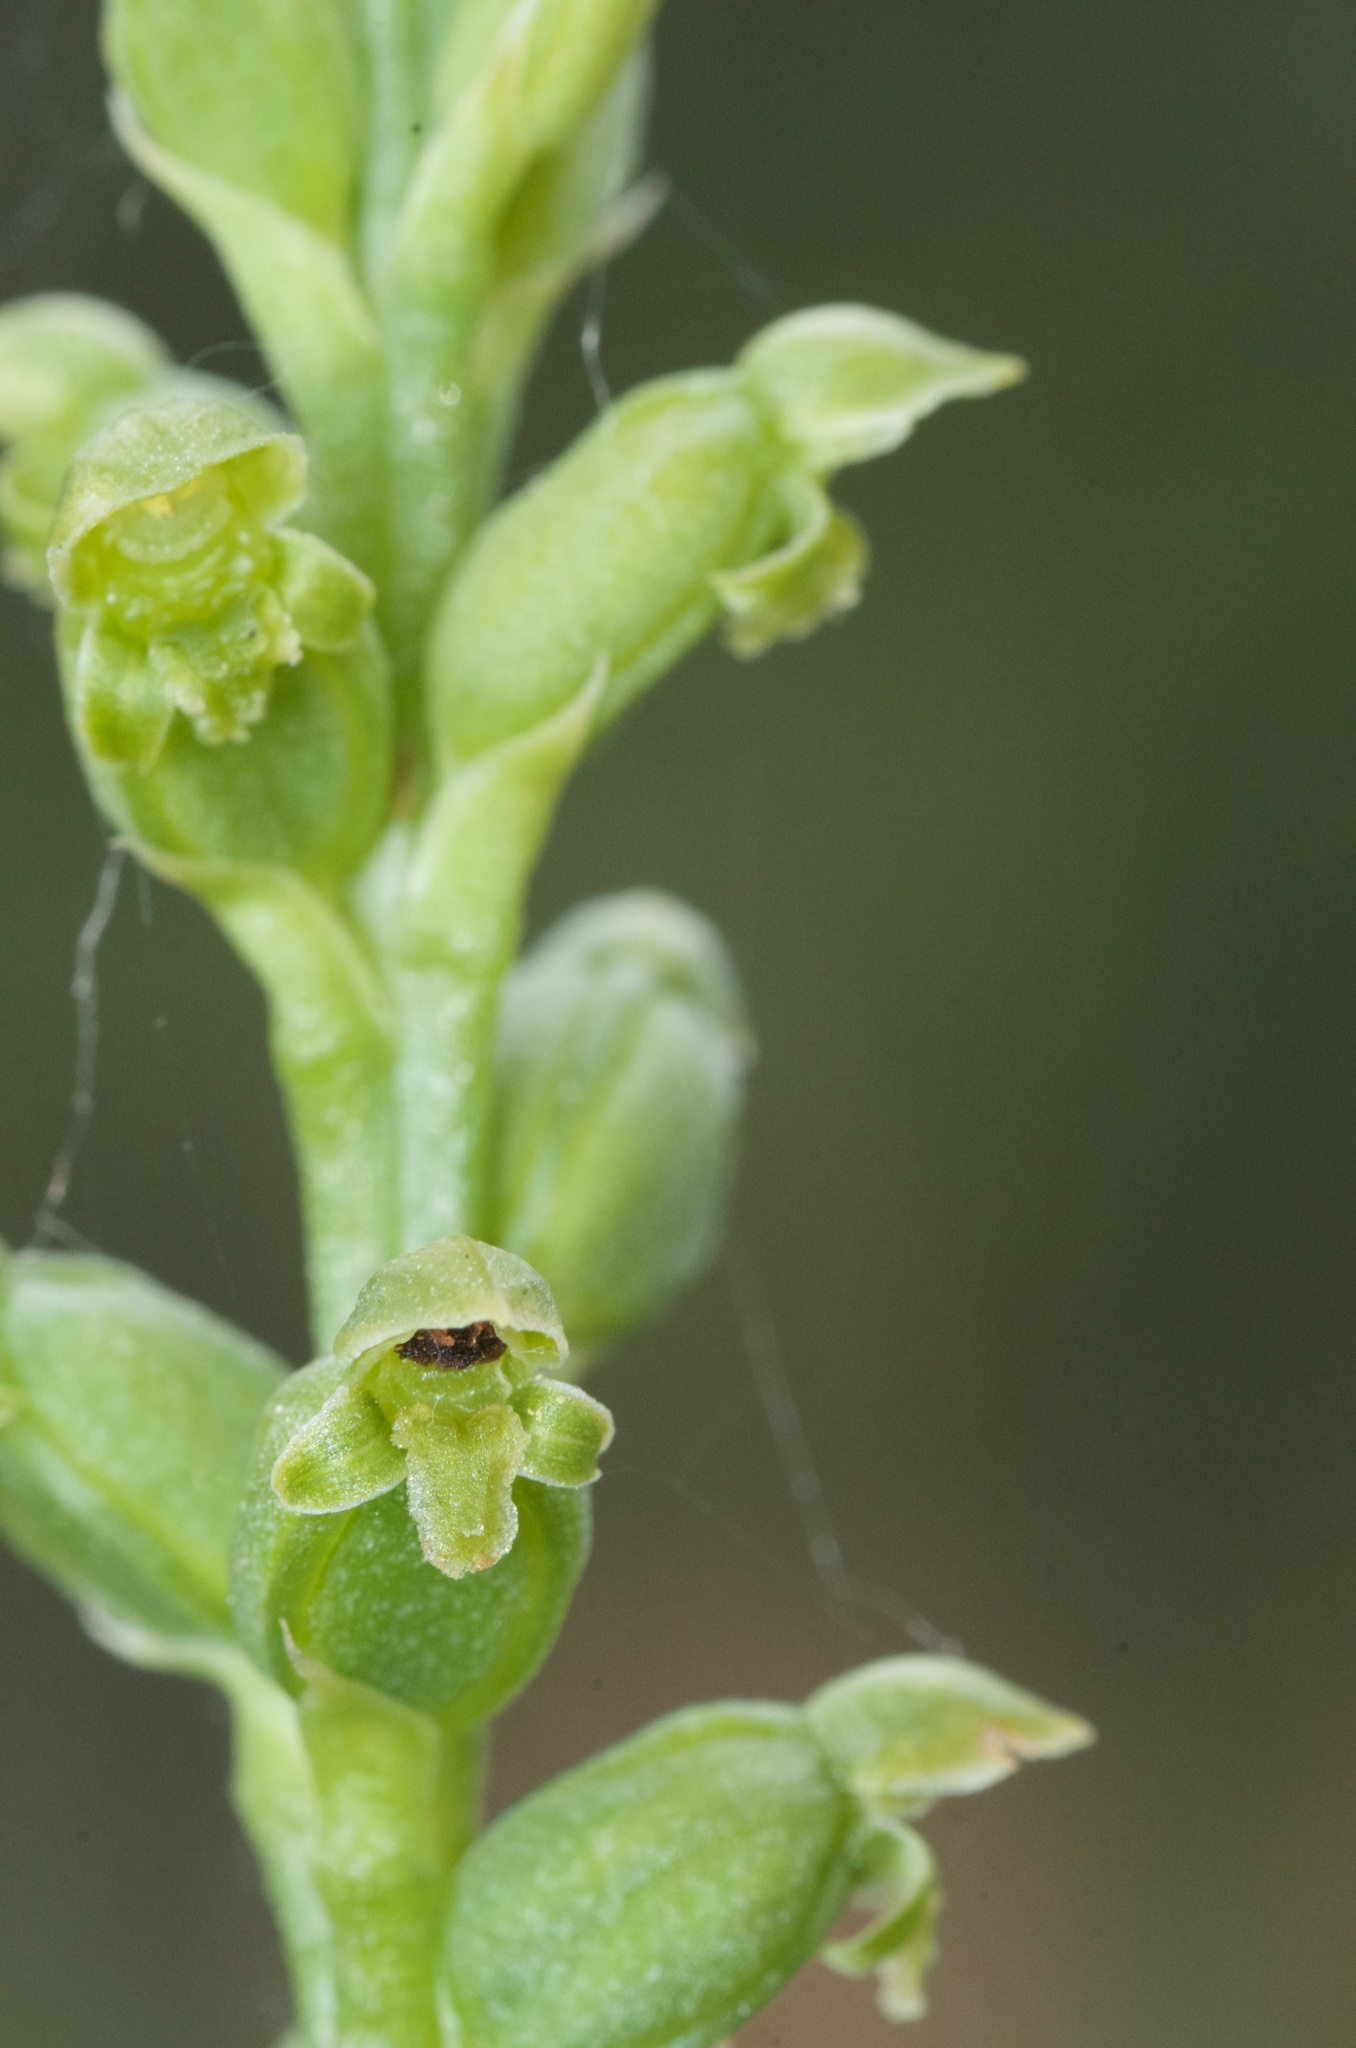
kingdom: Plantae
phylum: Tracheophyta
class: Liliopsida
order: Asparagales
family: Orchidaceae
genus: Microtis
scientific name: Microtis unifolia
